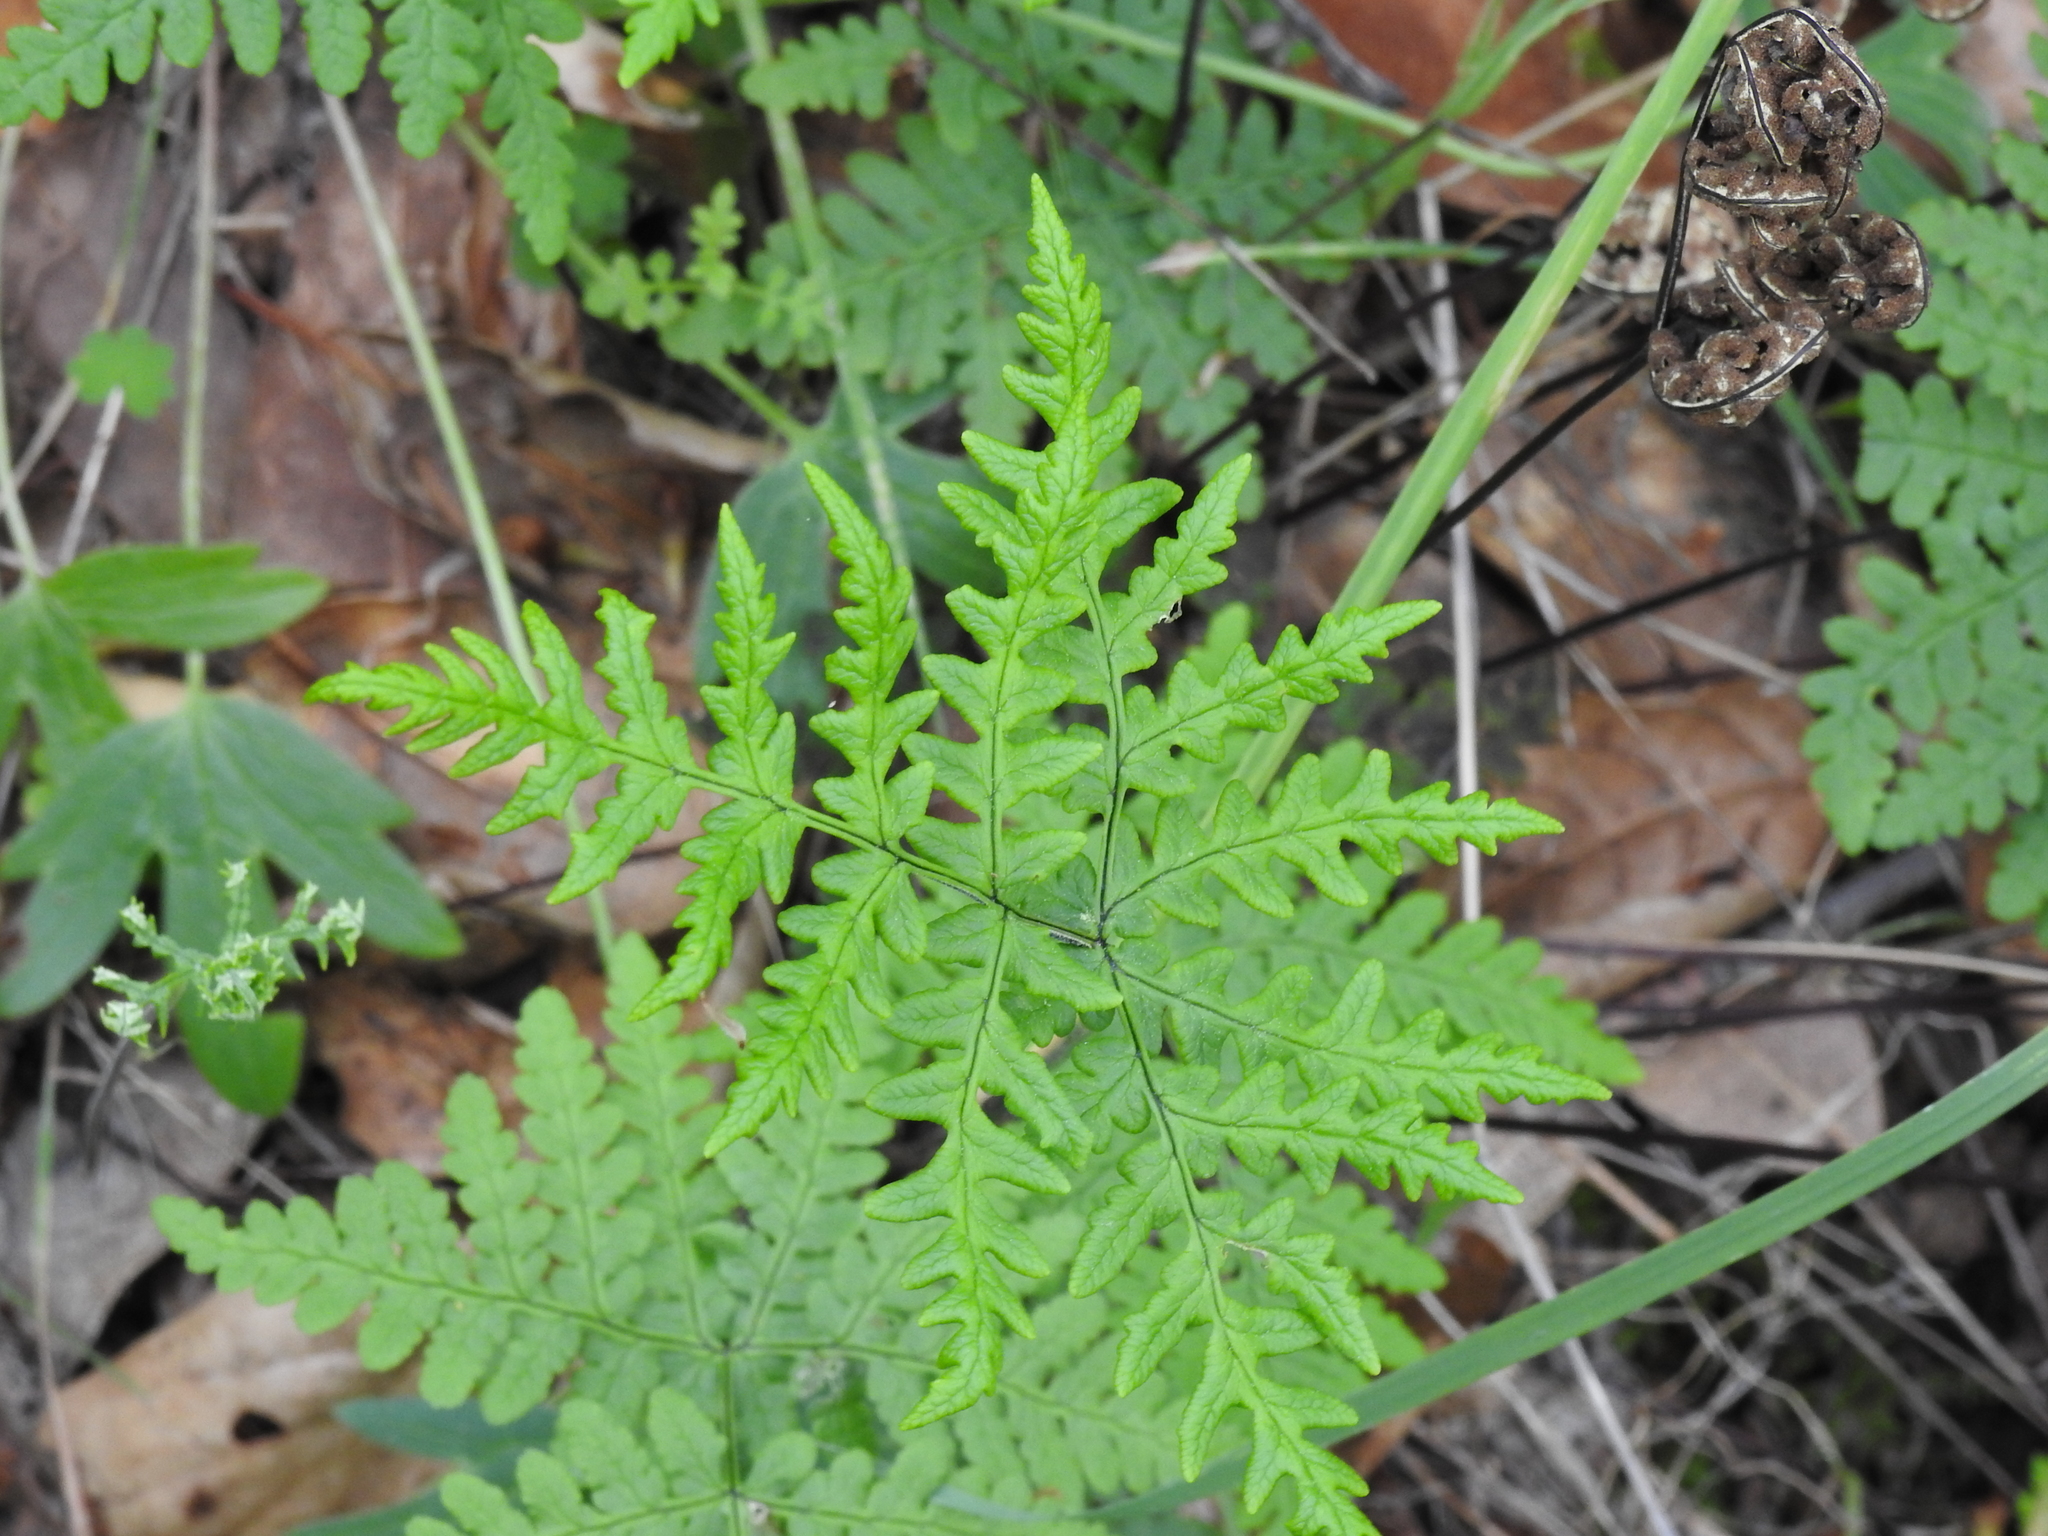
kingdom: Plantae
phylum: Tracheophyta
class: Polypodiopsida
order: Polypodiales
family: Pteridaceae
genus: Pentagramma
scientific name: Pentagramma triangularis
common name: Gold fern
